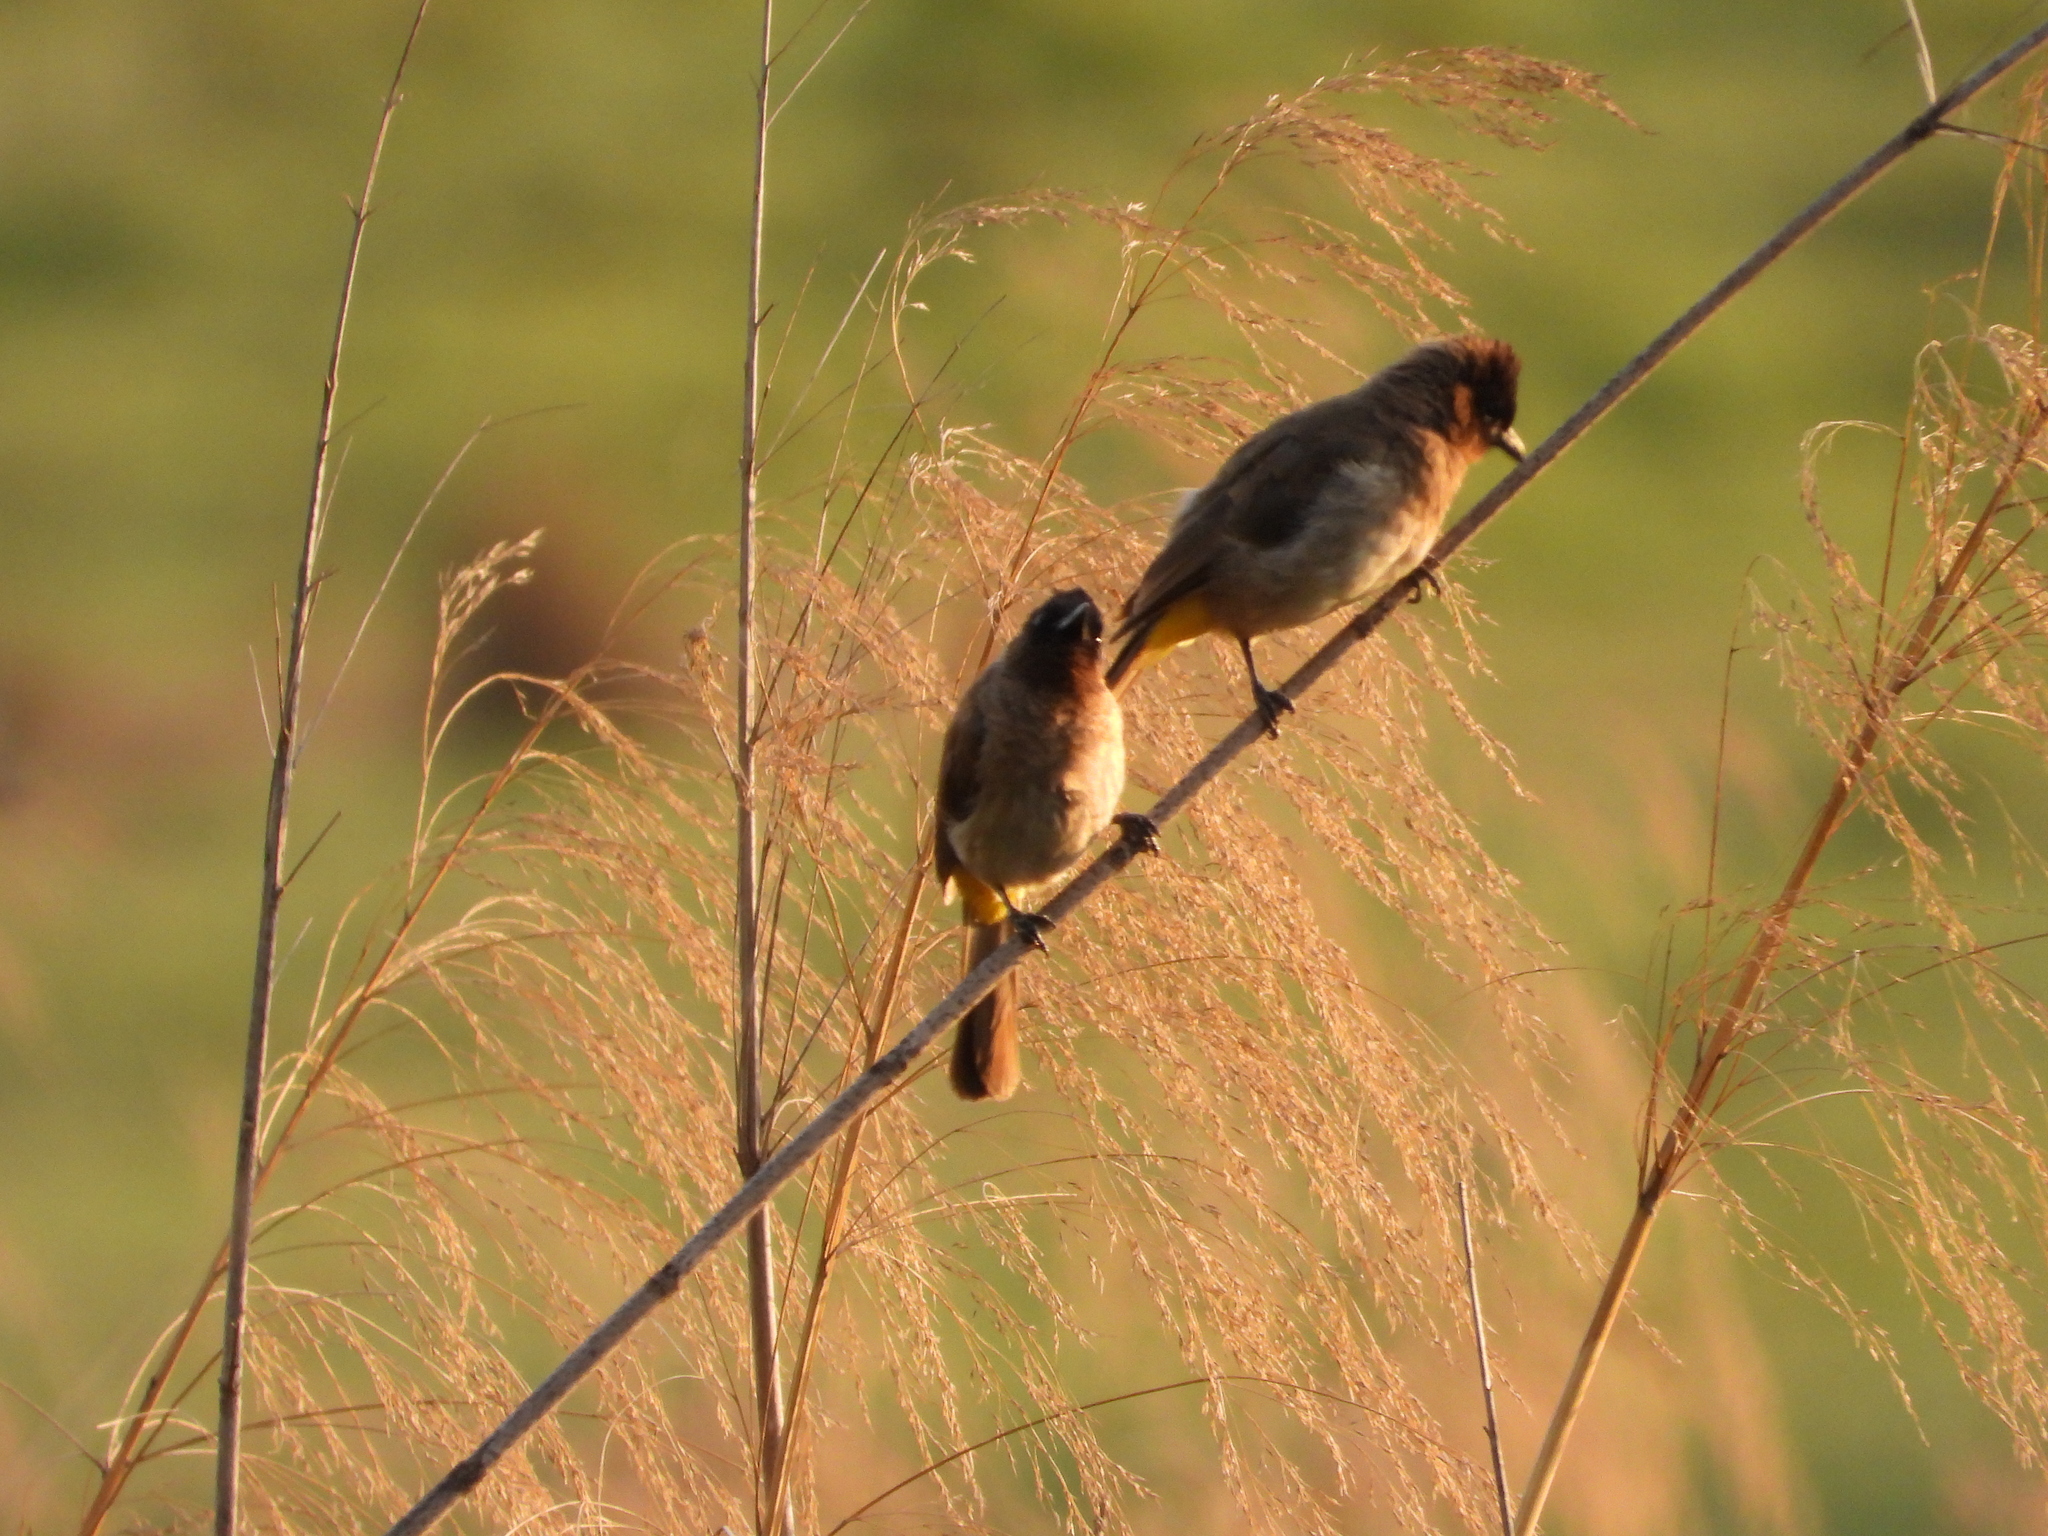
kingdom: Animalia
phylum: Chordata
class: Aves
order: Passeriformes
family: Pycnonotidae
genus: Pycnonotus
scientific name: Pycnonotus barbatus
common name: Common bulbul
